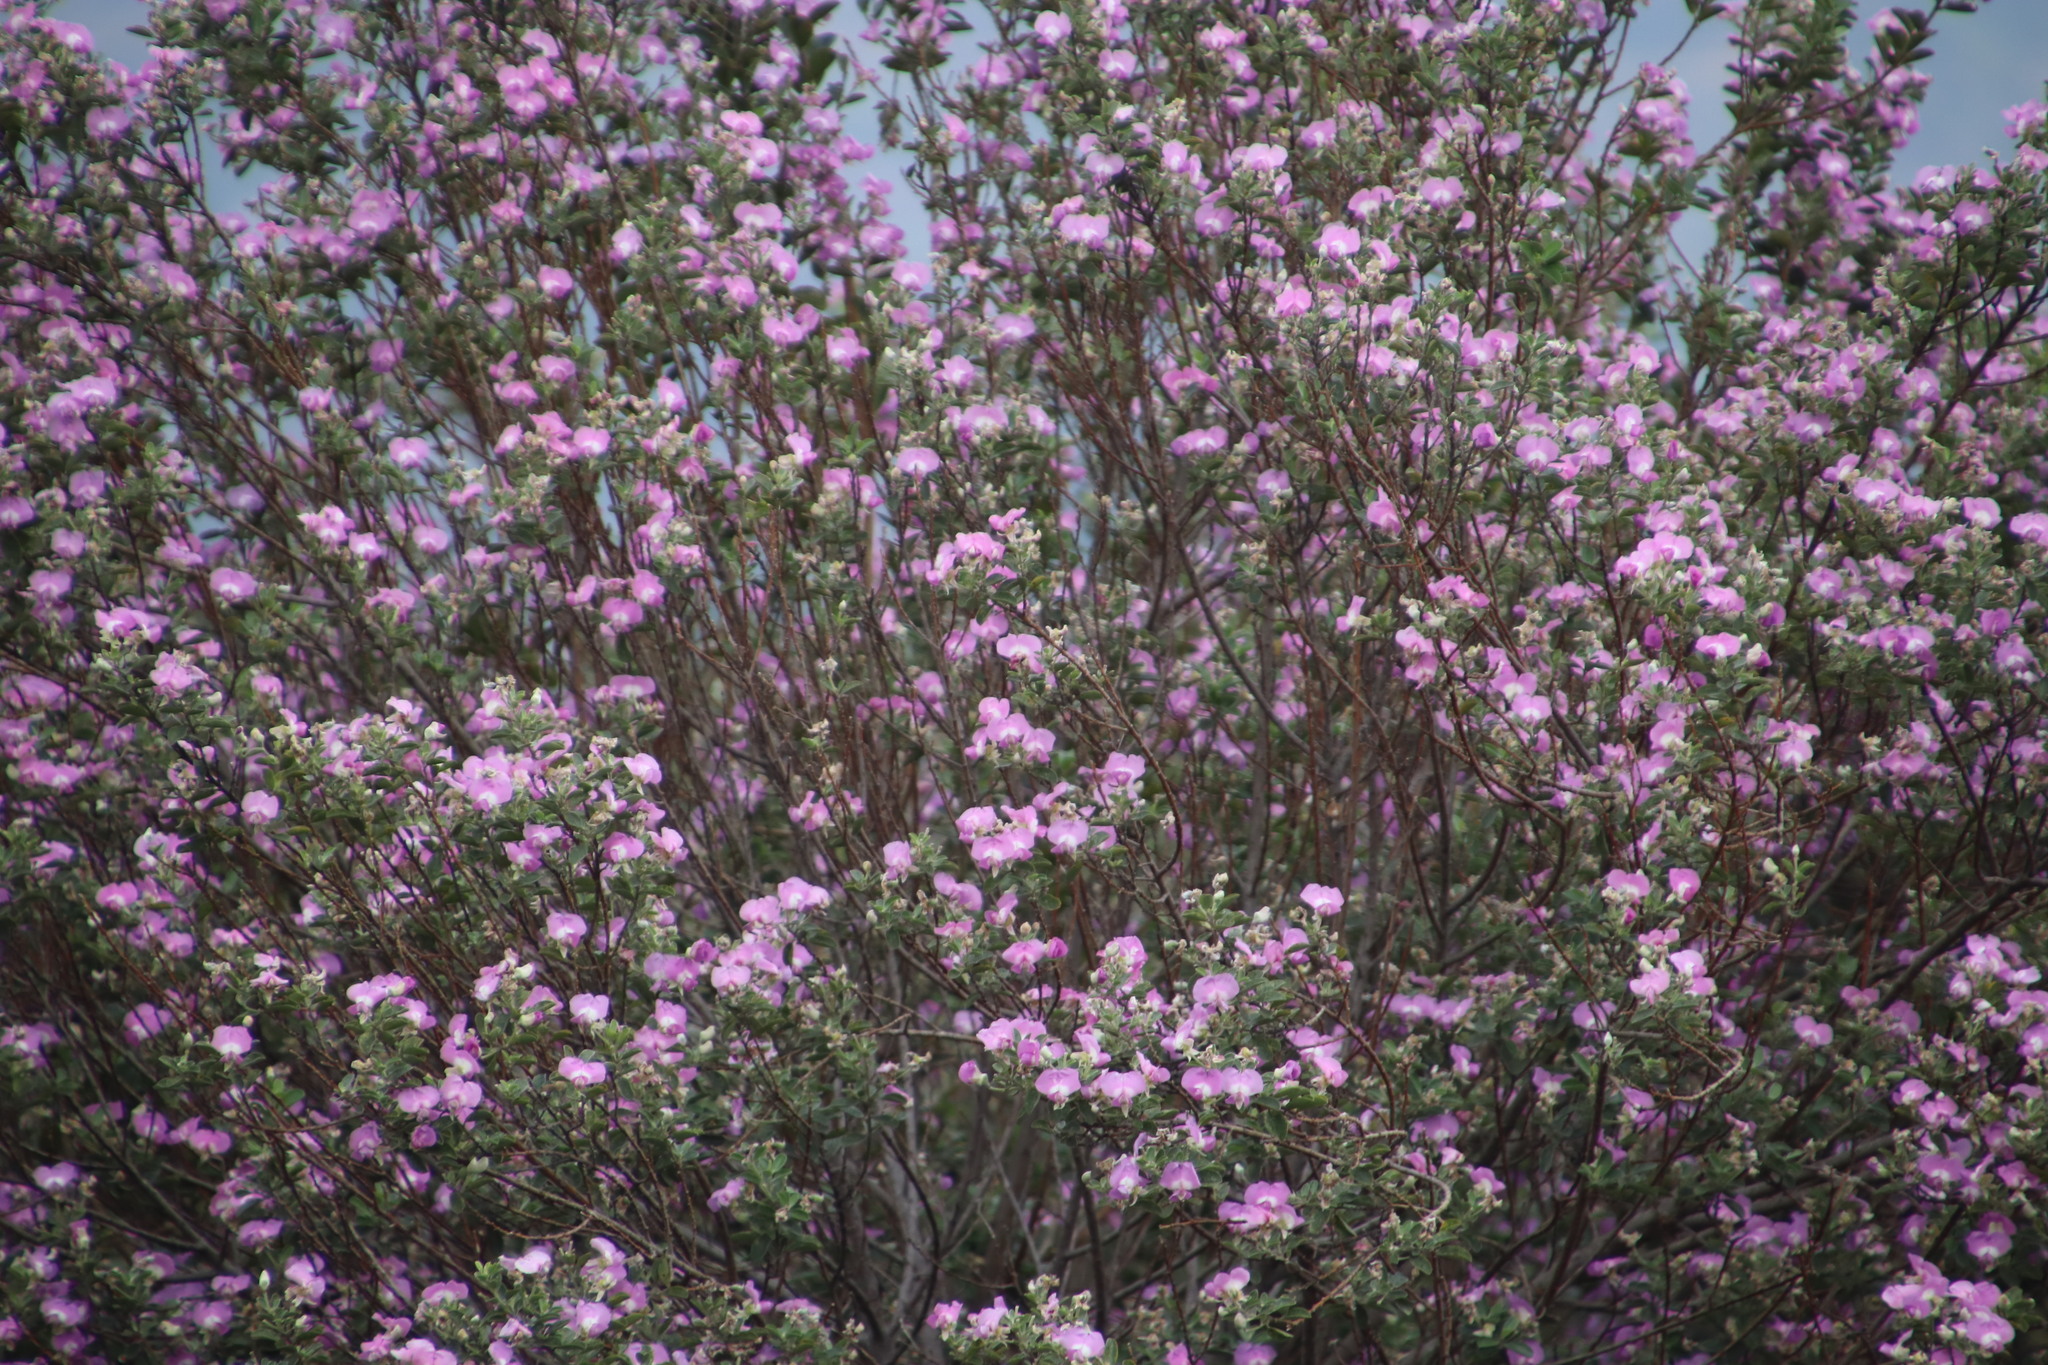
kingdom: Plantae
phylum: Tracheophyta
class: Magnoliopsida
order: Fabales
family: Fabaceae
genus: Podalyria
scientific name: Podalyria calyptrata
